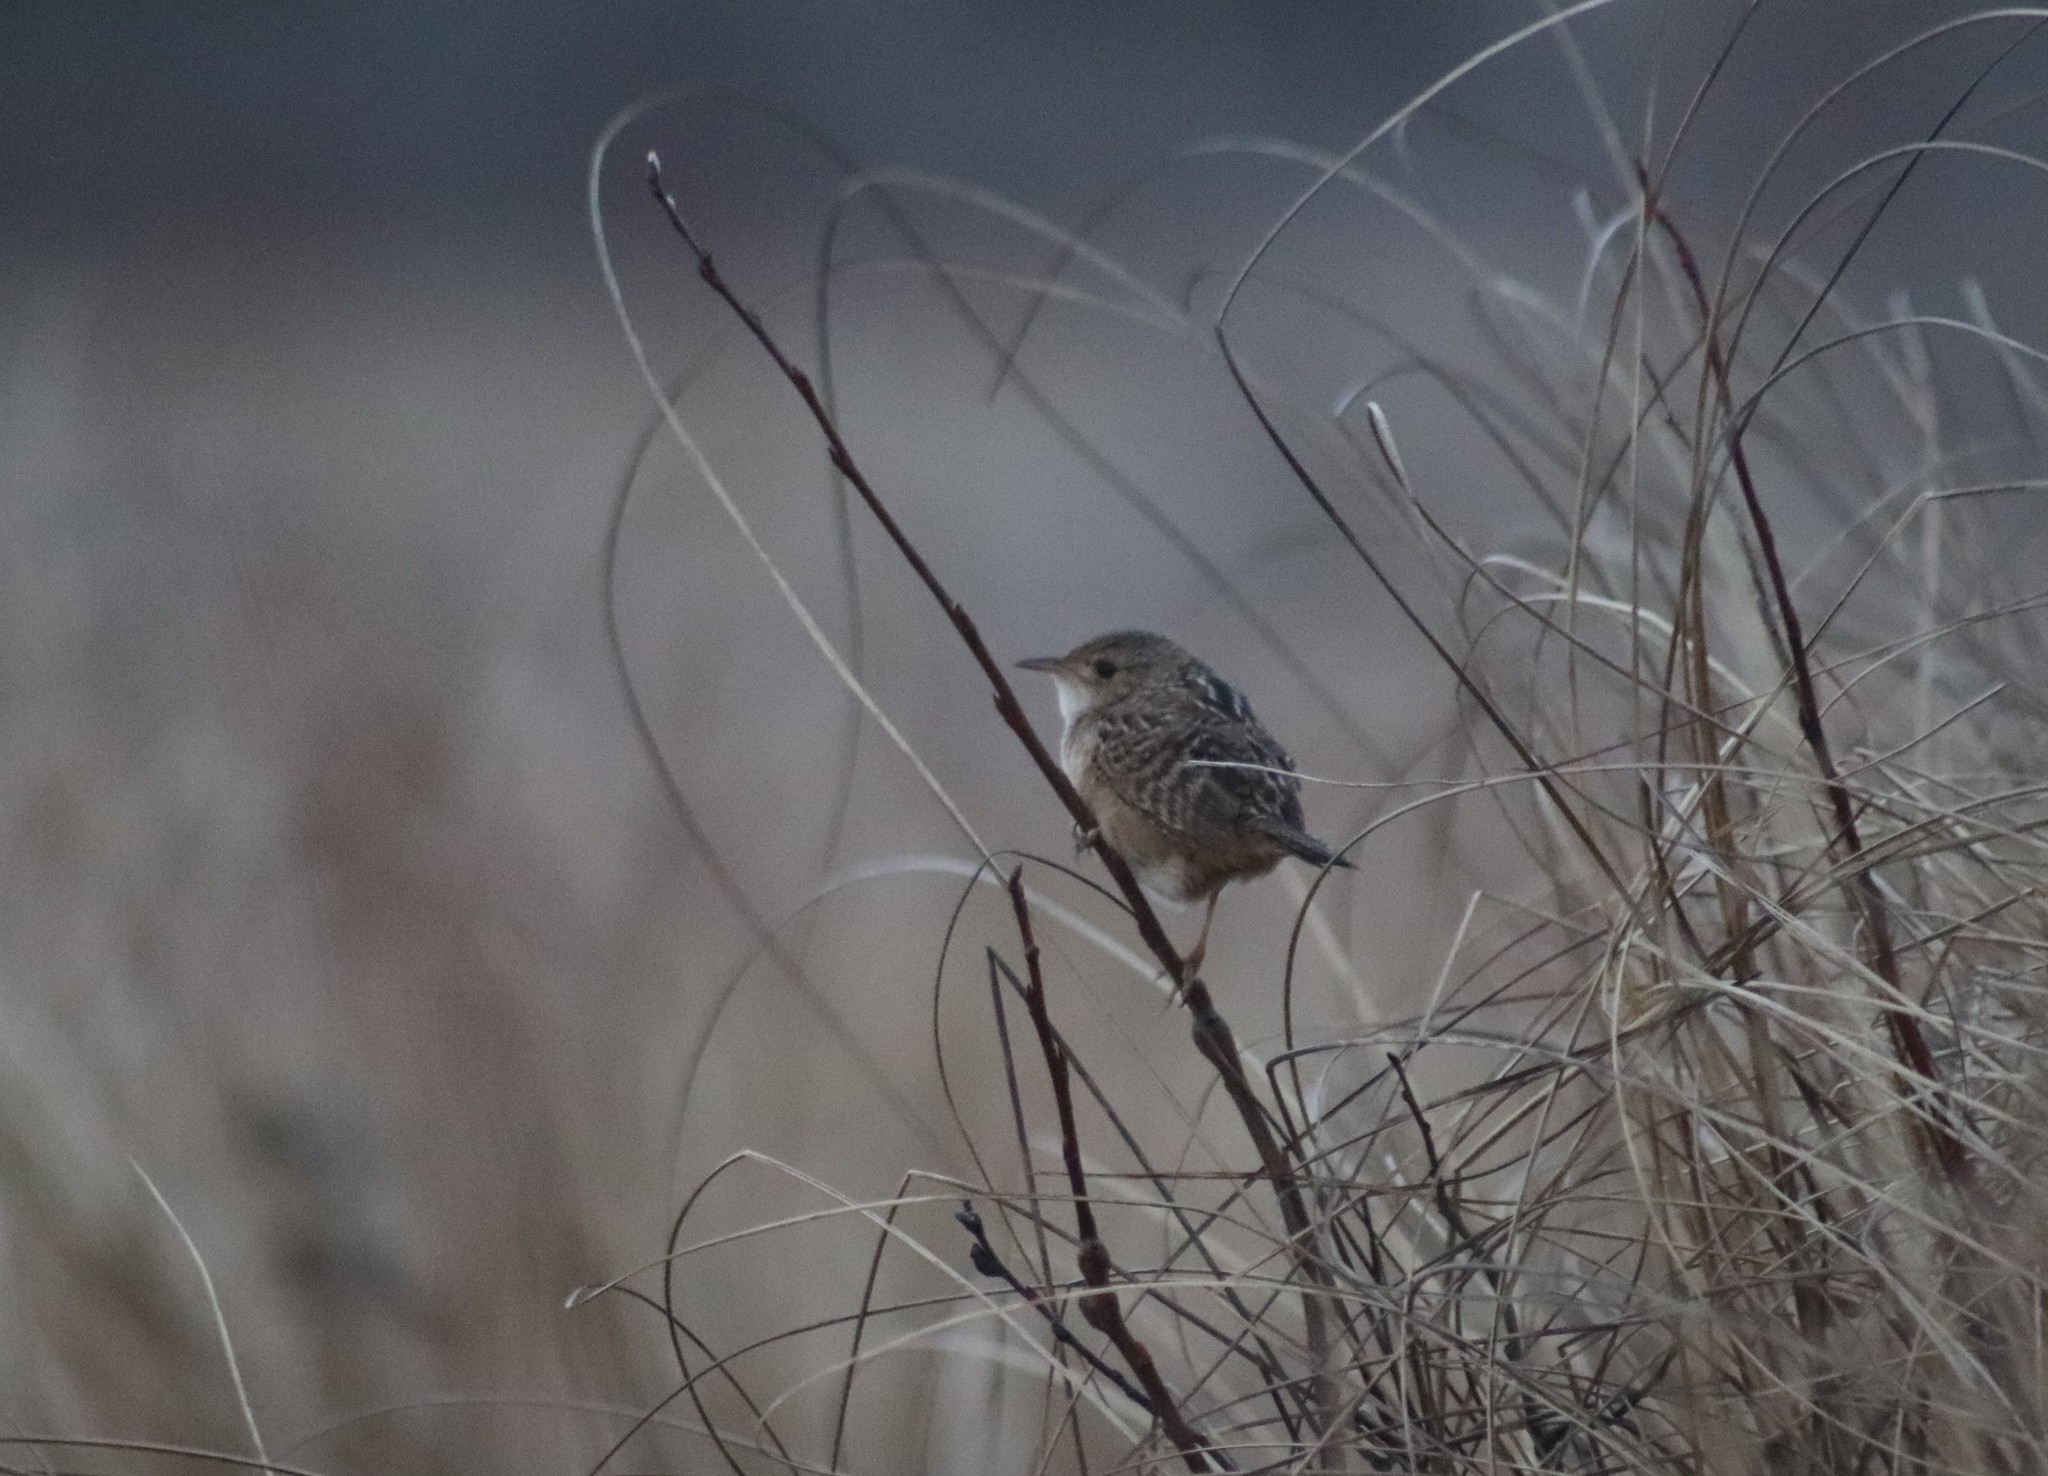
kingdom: Animalia
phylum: Chordata
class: Aves
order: Passeriformes
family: Troglodytidae
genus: Cistothorus
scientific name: Cistothorus platensis
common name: Sedge wren
